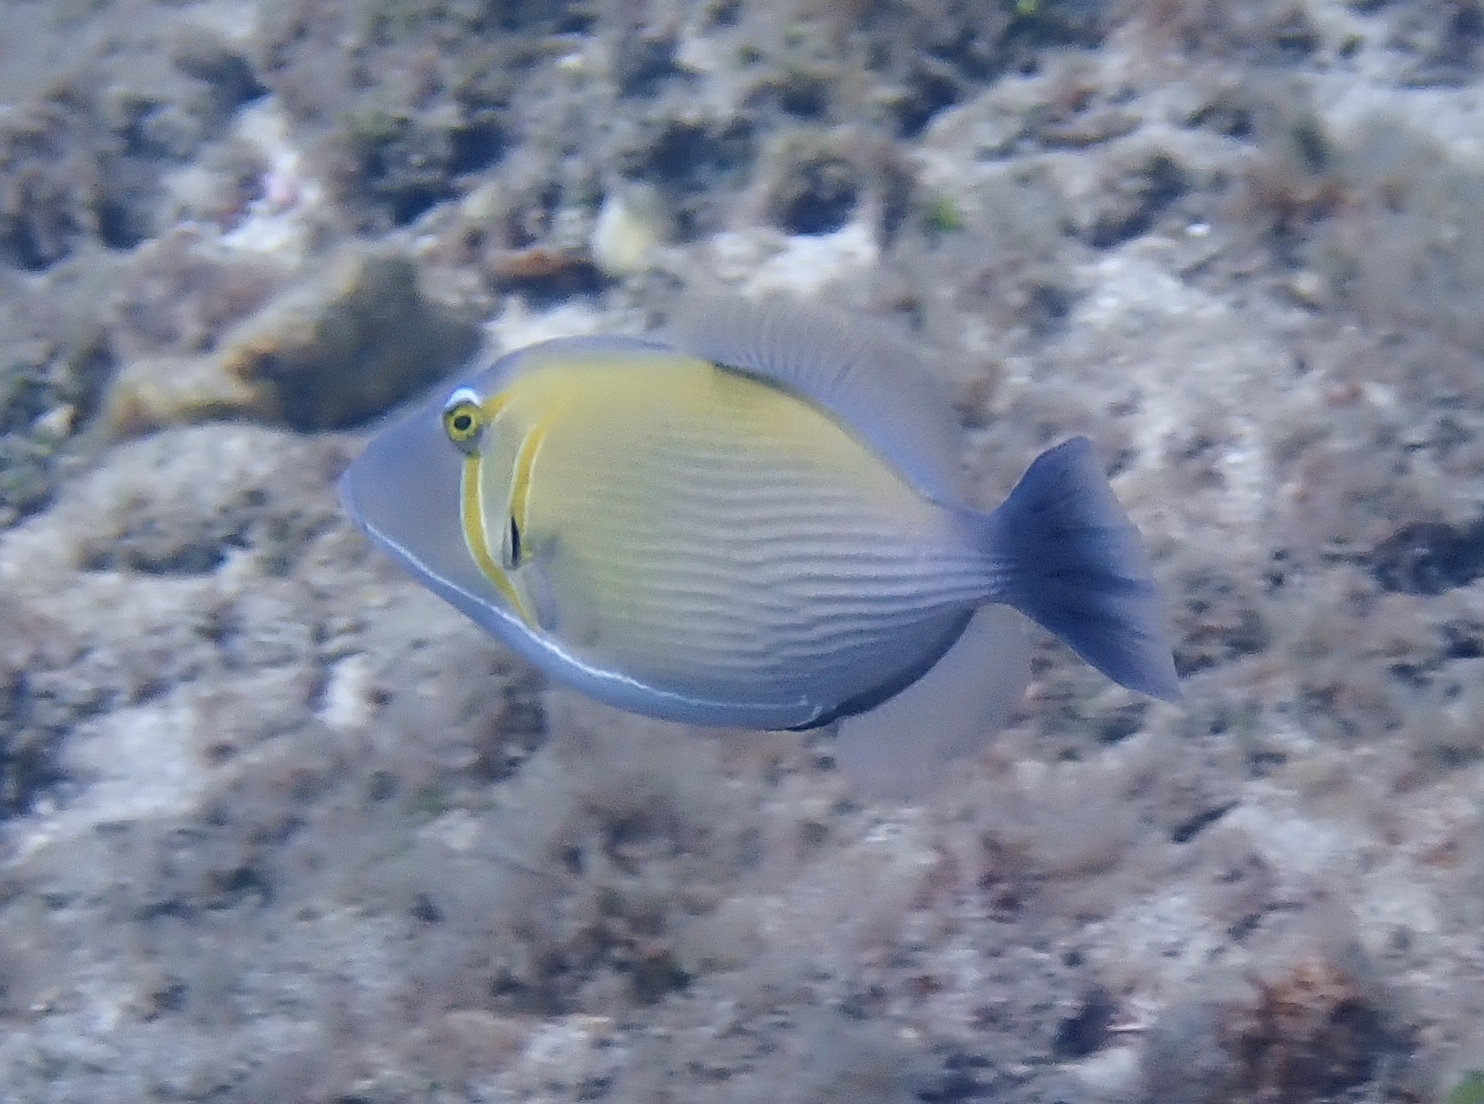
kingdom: Animalia
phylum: Chordata
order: Tetraodontiformes
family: Balistidae
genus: Sufflamen
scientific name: Sufflamen bursa
